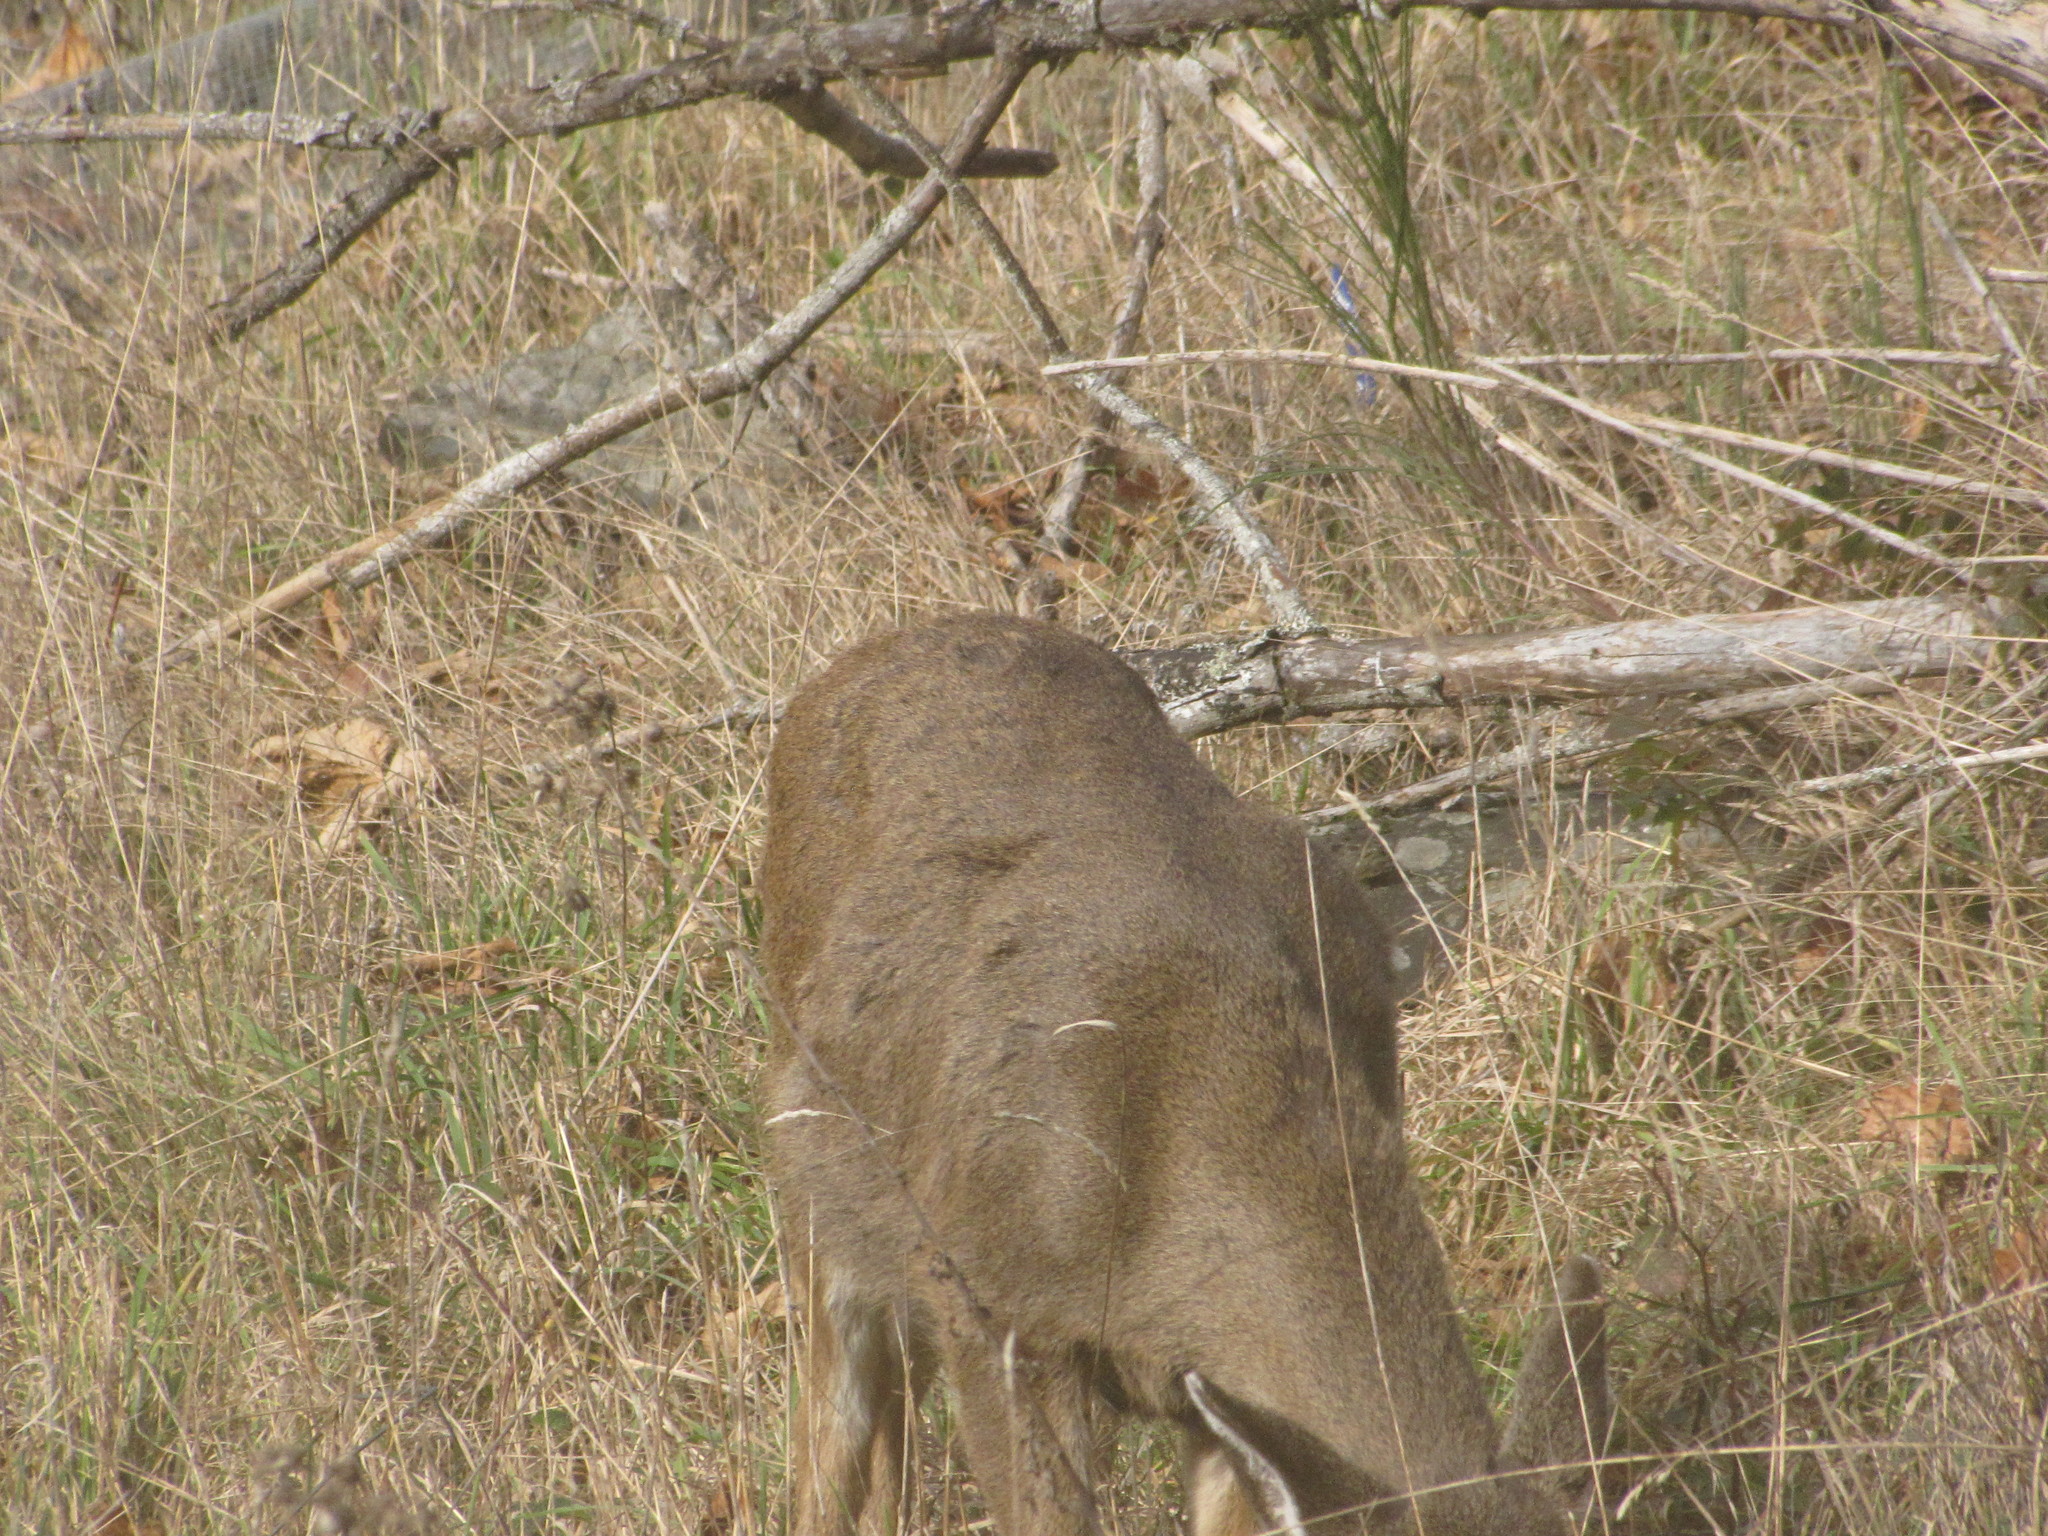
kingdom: Animalia
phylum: Chordata
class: Mammalia
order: Artiodactyla
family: Cervidae
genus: Odocoileus
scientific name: Odocoileus hemionus
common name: Mule deer
